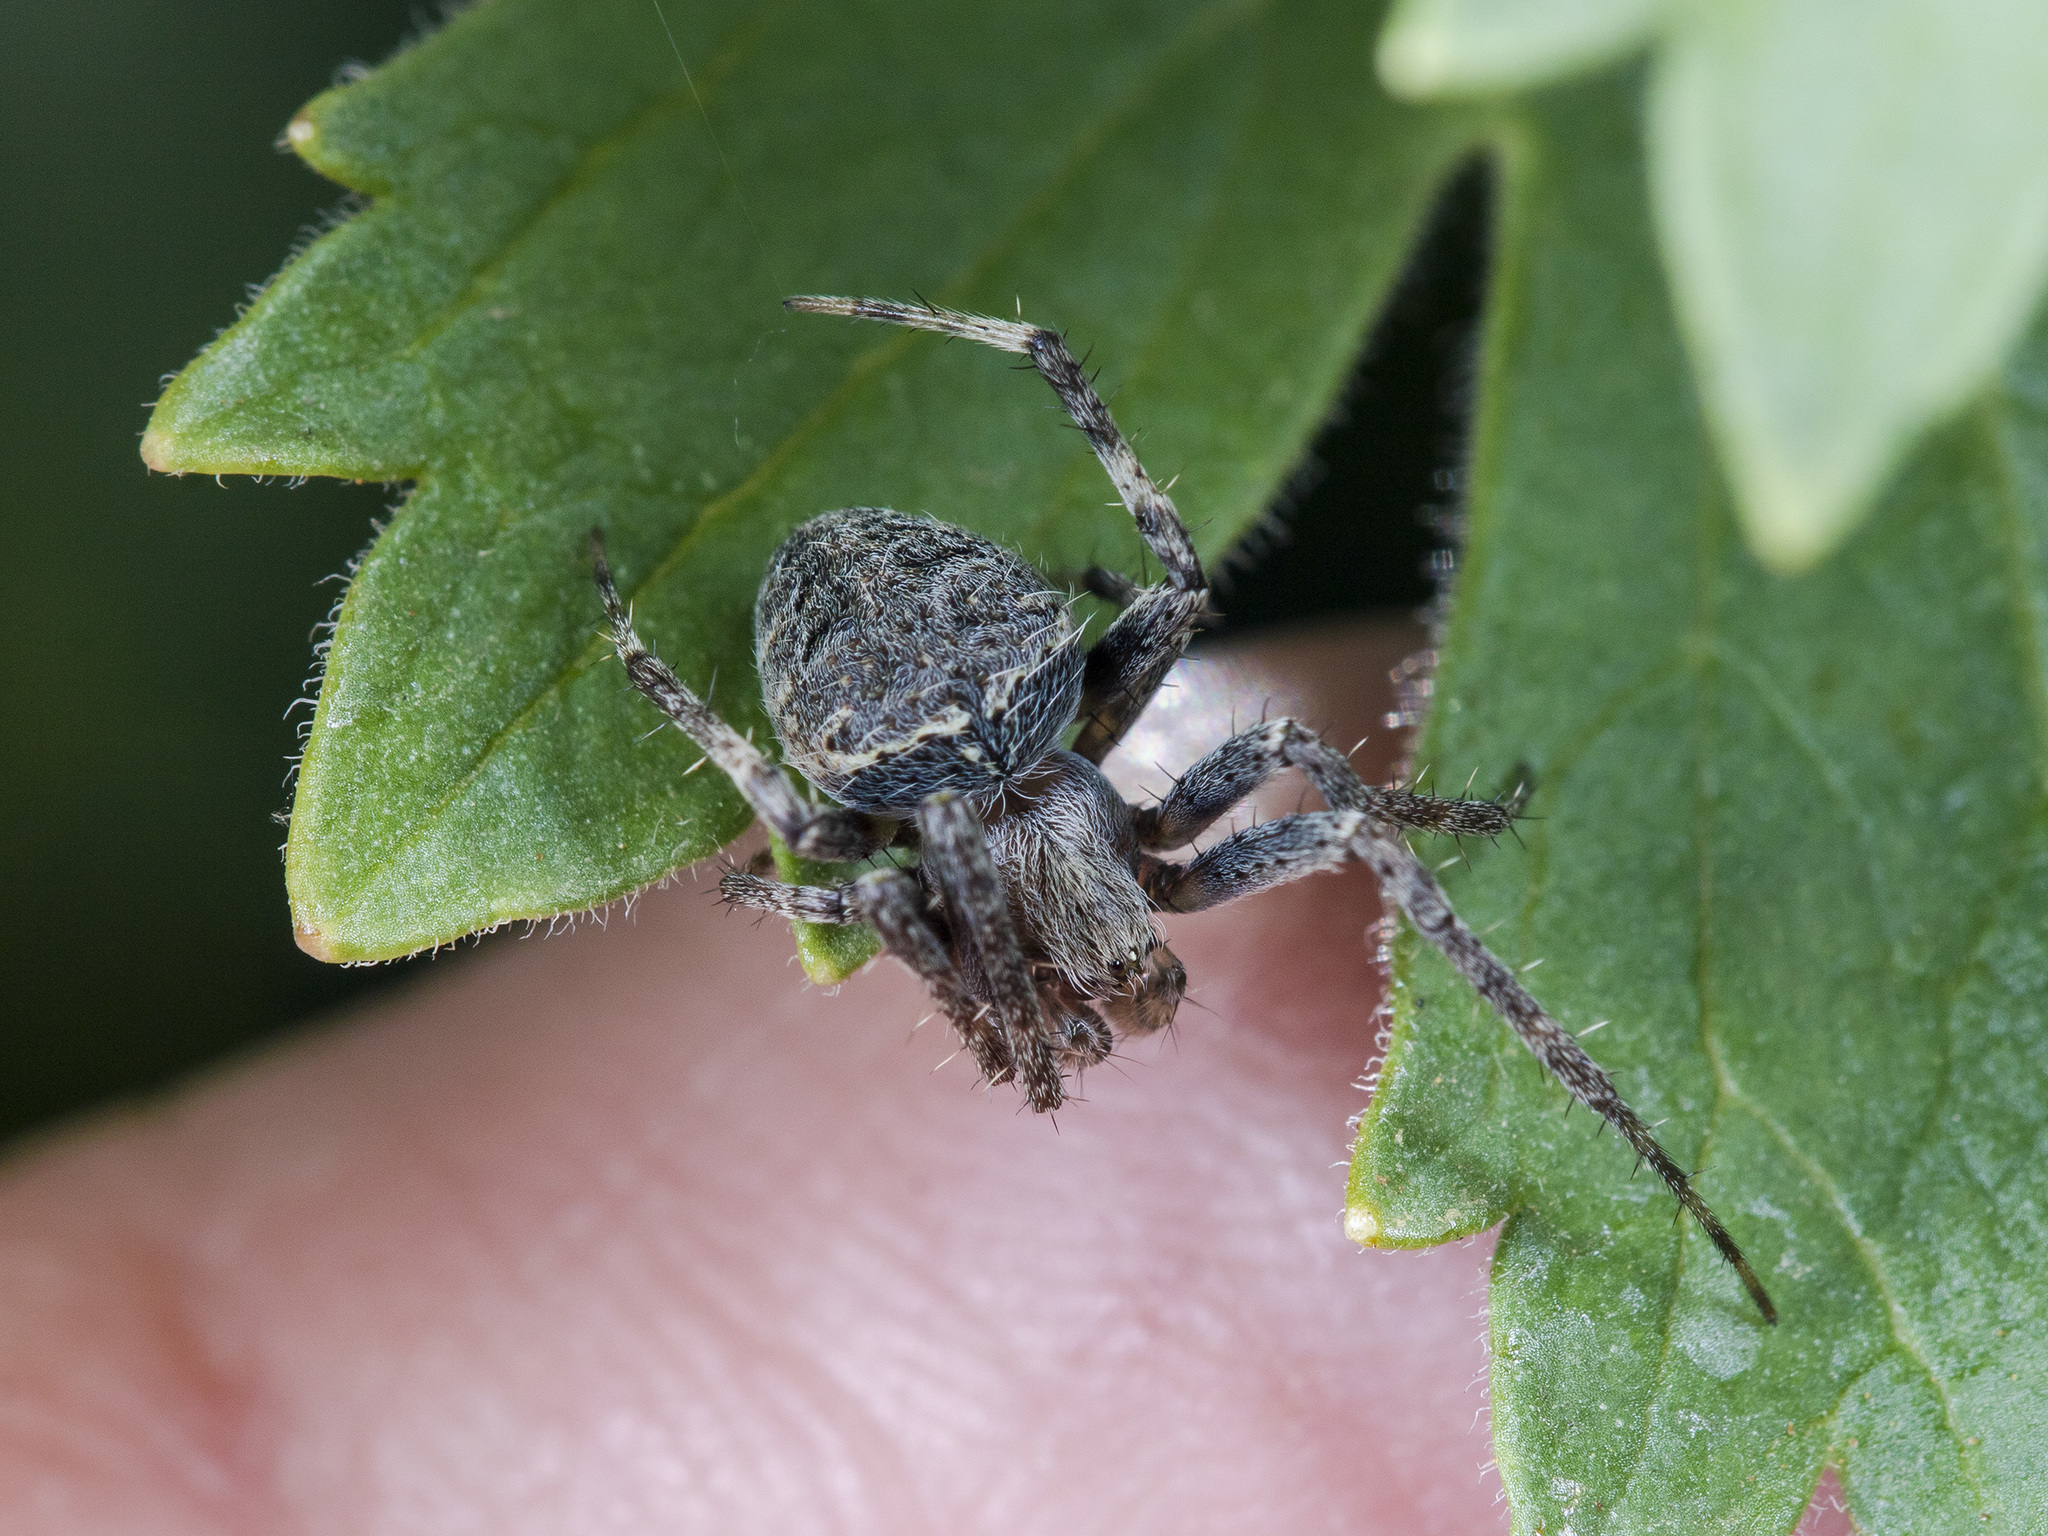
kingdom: Animalia
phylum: Arthropoda
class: Arachnida
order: Araneae
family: Araneidae
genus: Neoscona
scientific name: Neoscona spasskyi
